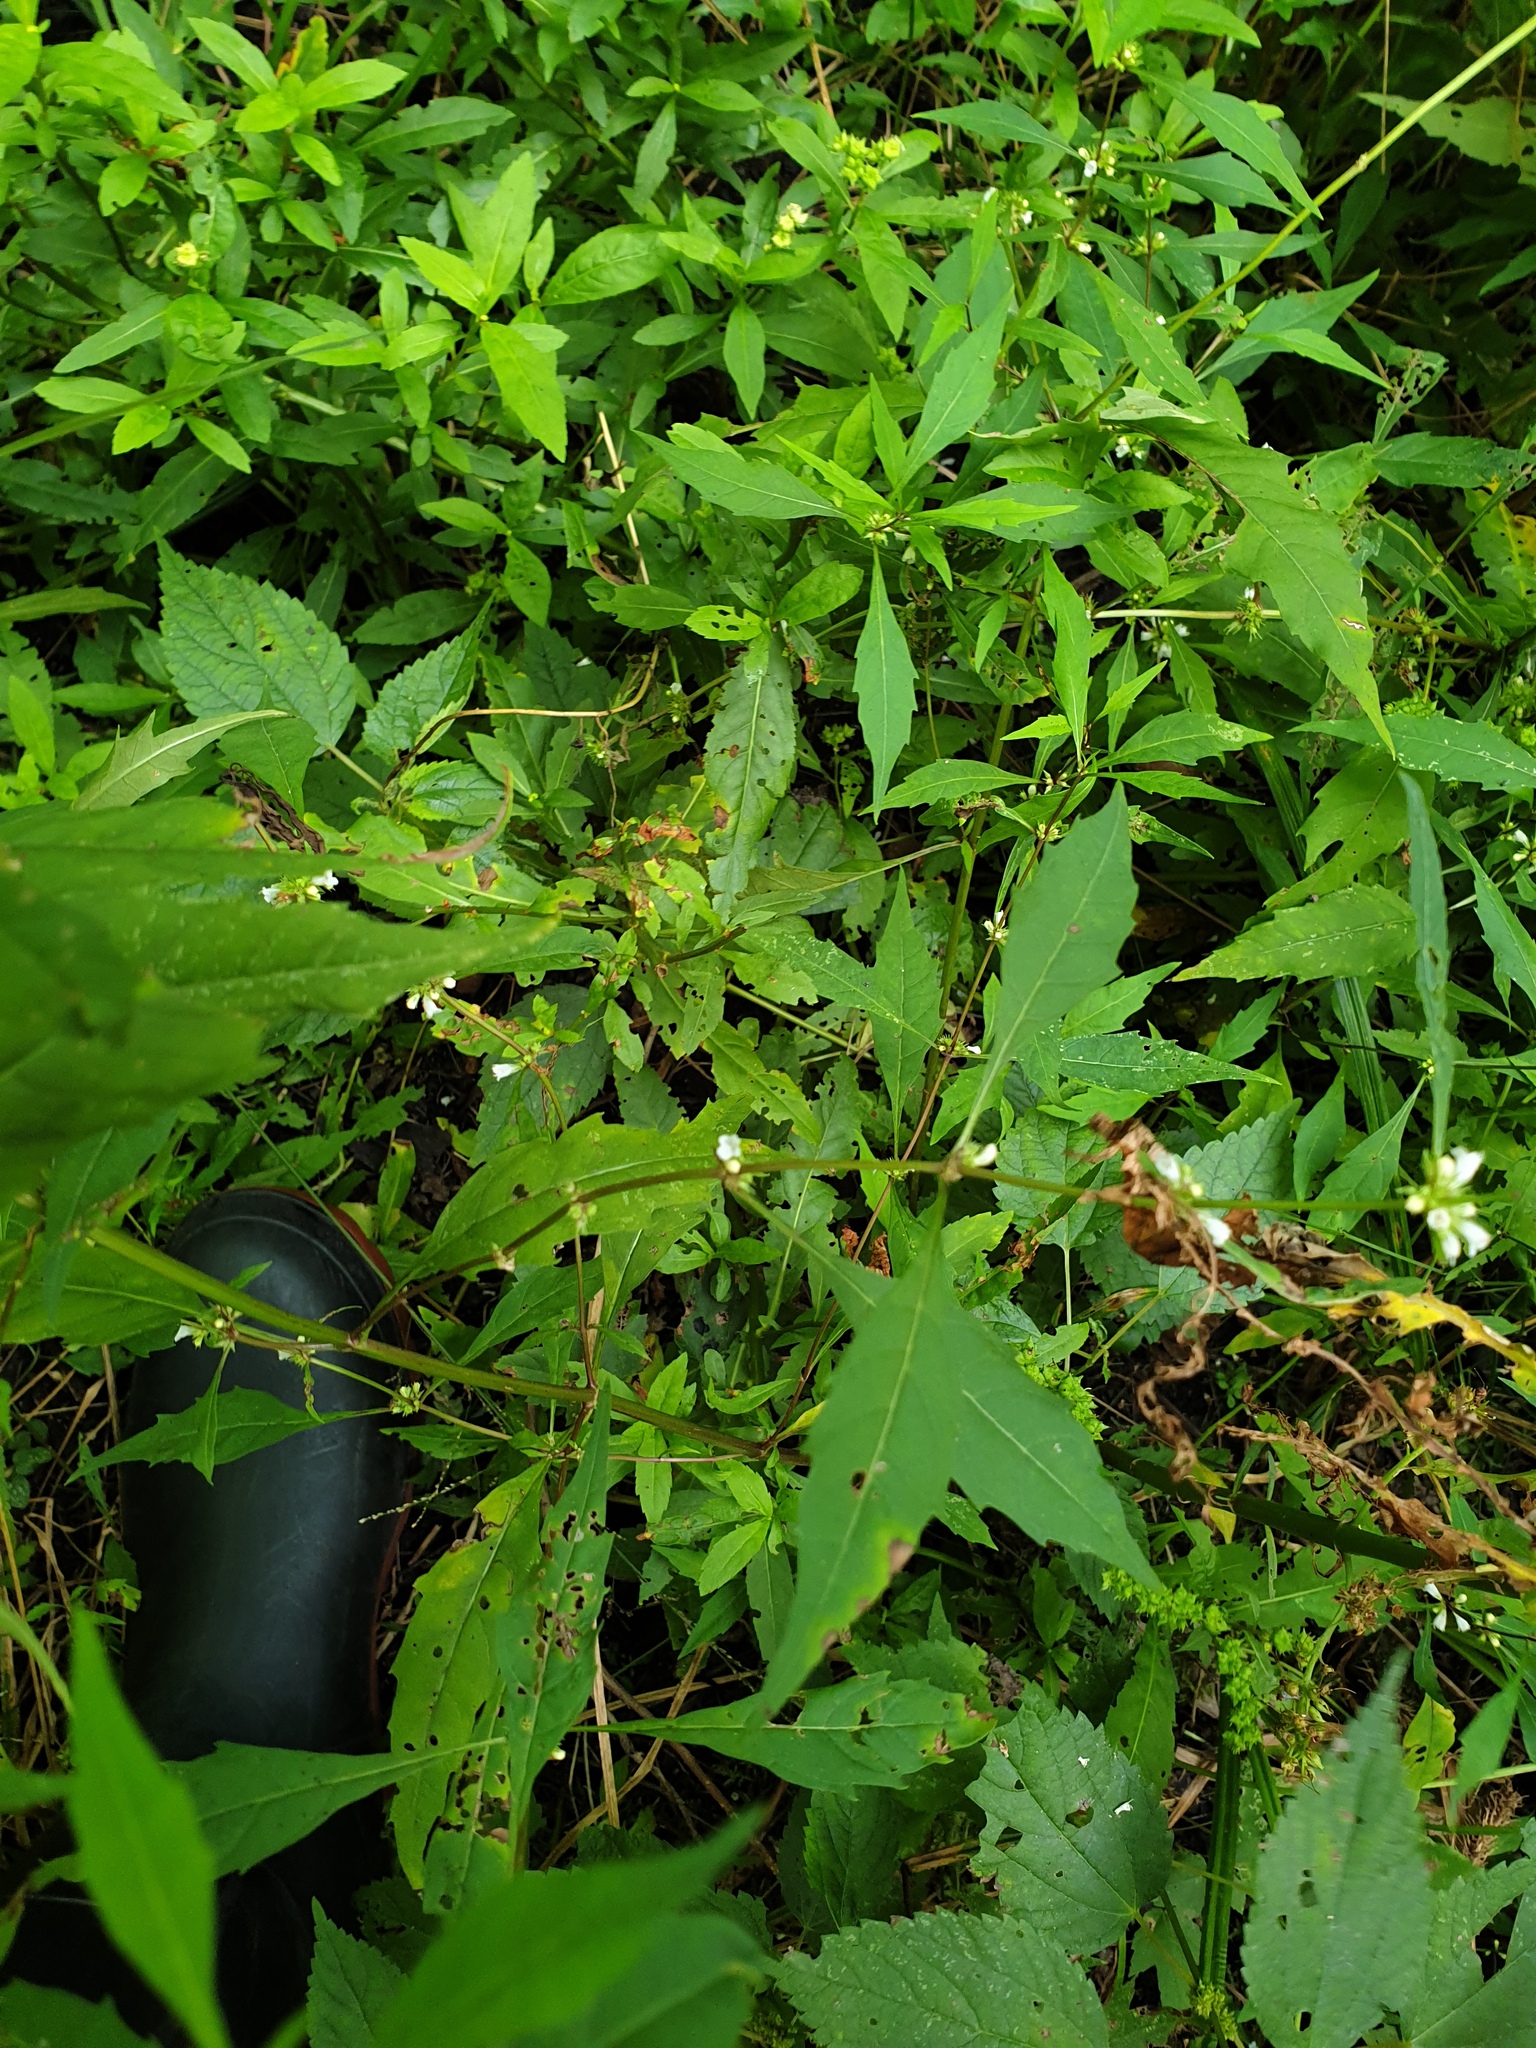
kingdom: Plantae
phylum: Tracheophyta
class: Magnoliopsida
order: Lamiales
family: Lamiaceae
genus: Lycopus
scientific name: Lycopus rubellus
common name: Stalked bugleweed
